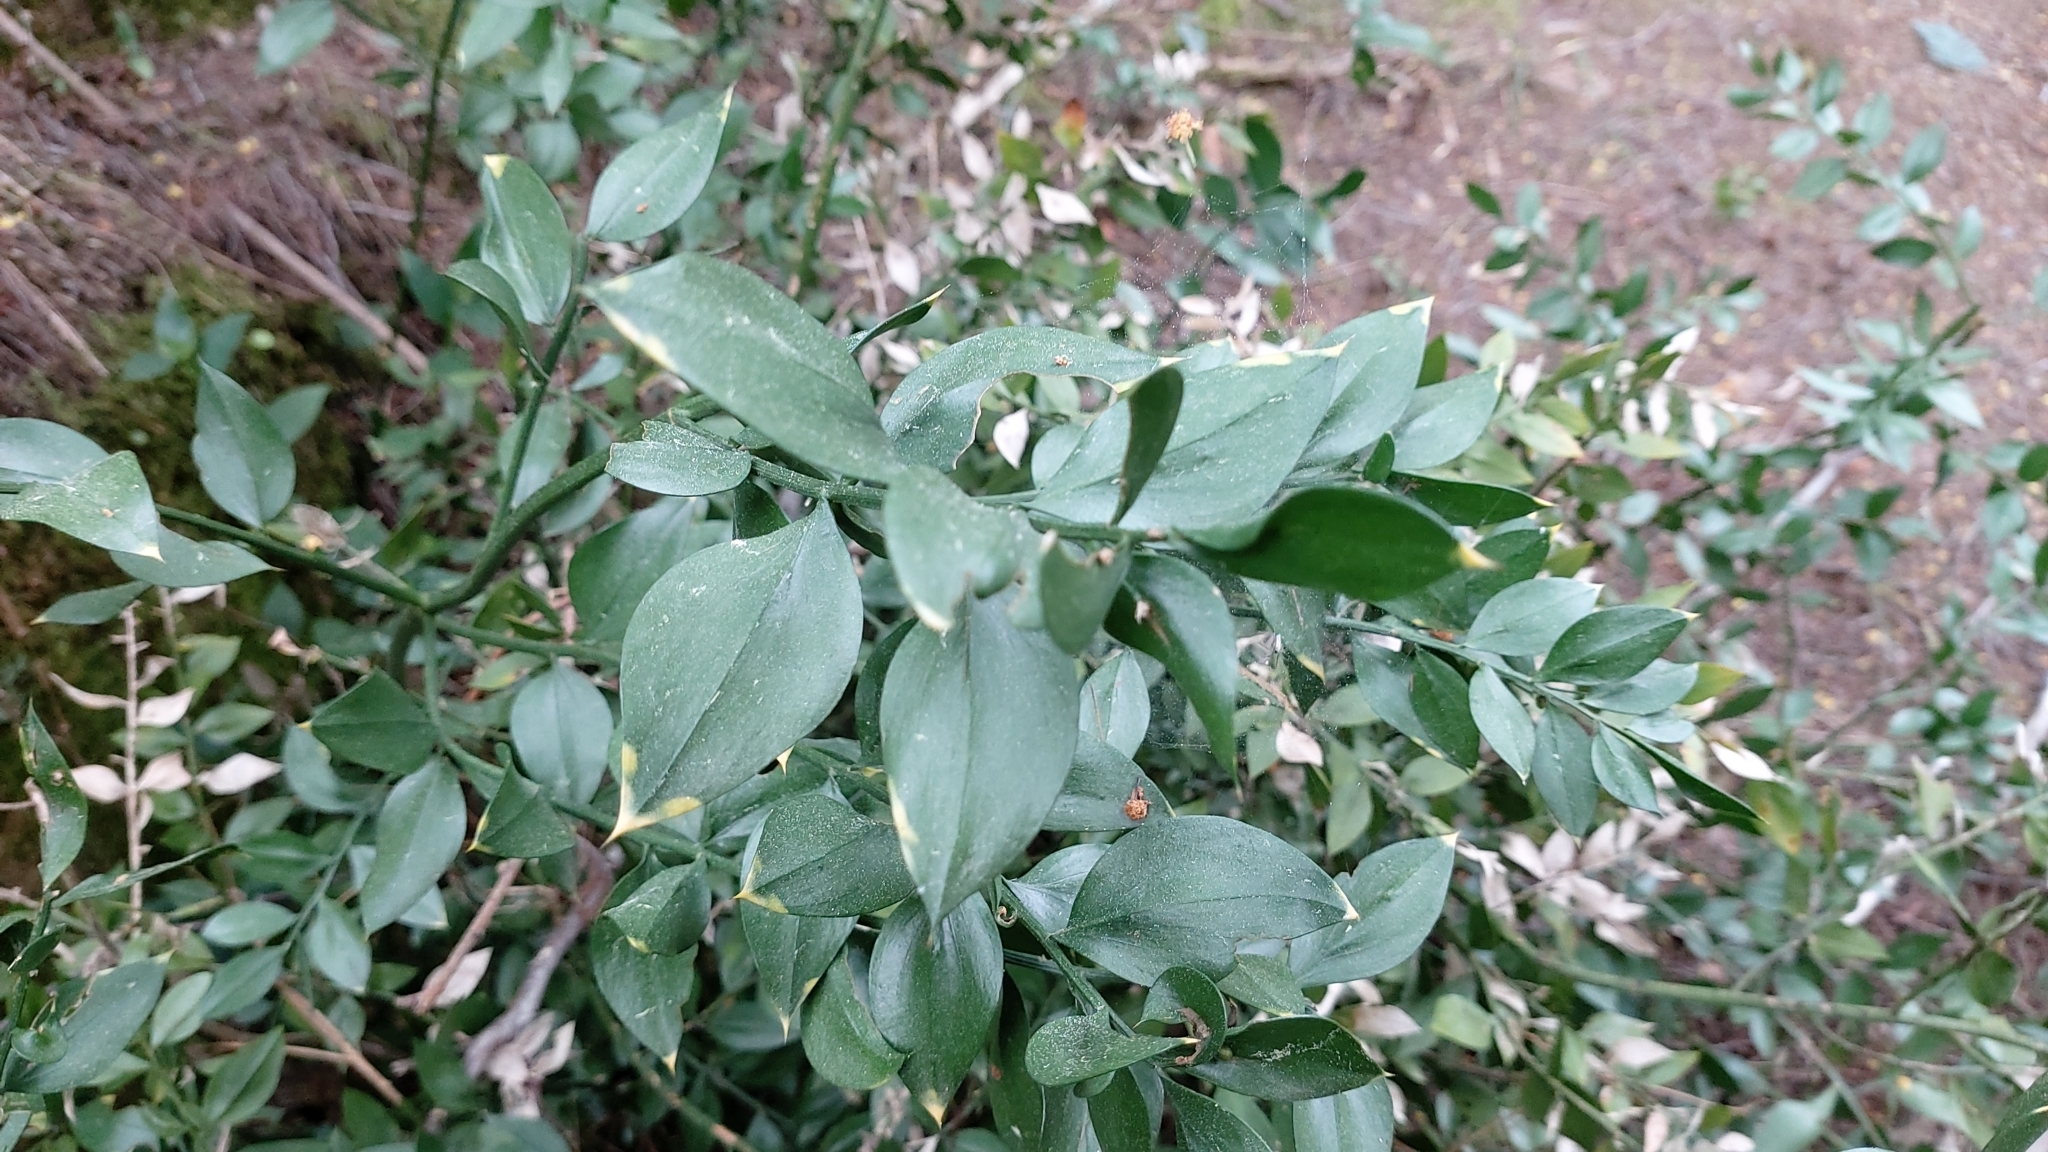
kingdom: Plantae
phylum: Tracheophyta
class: Liliopsida
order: Asparagales
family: Asparagaceae
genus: Ruscus
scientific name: Ruscus aculeatus
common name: Butcher's-broom
